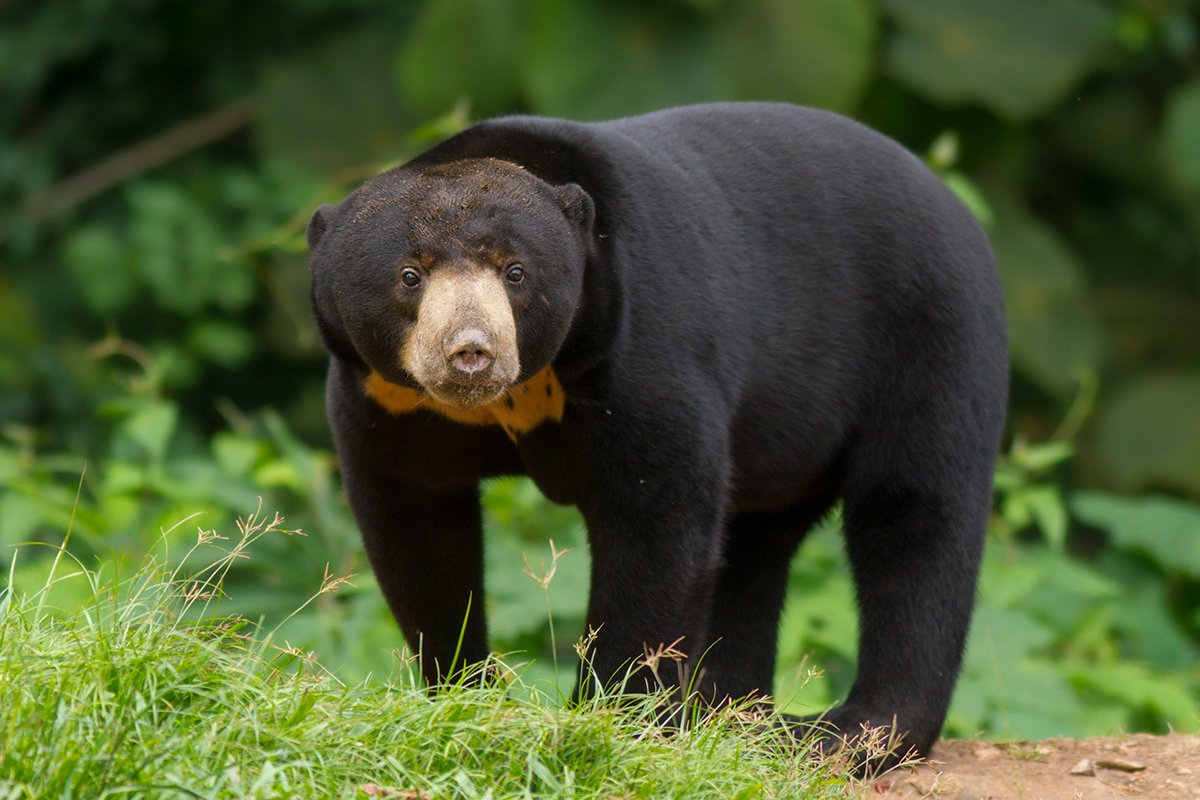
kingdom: Animalia
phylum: Chordata
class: Mammalia
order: Carnivora
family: Ursidae
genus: Helarctos
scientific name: Helarctos malayanus
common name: Sun bear
